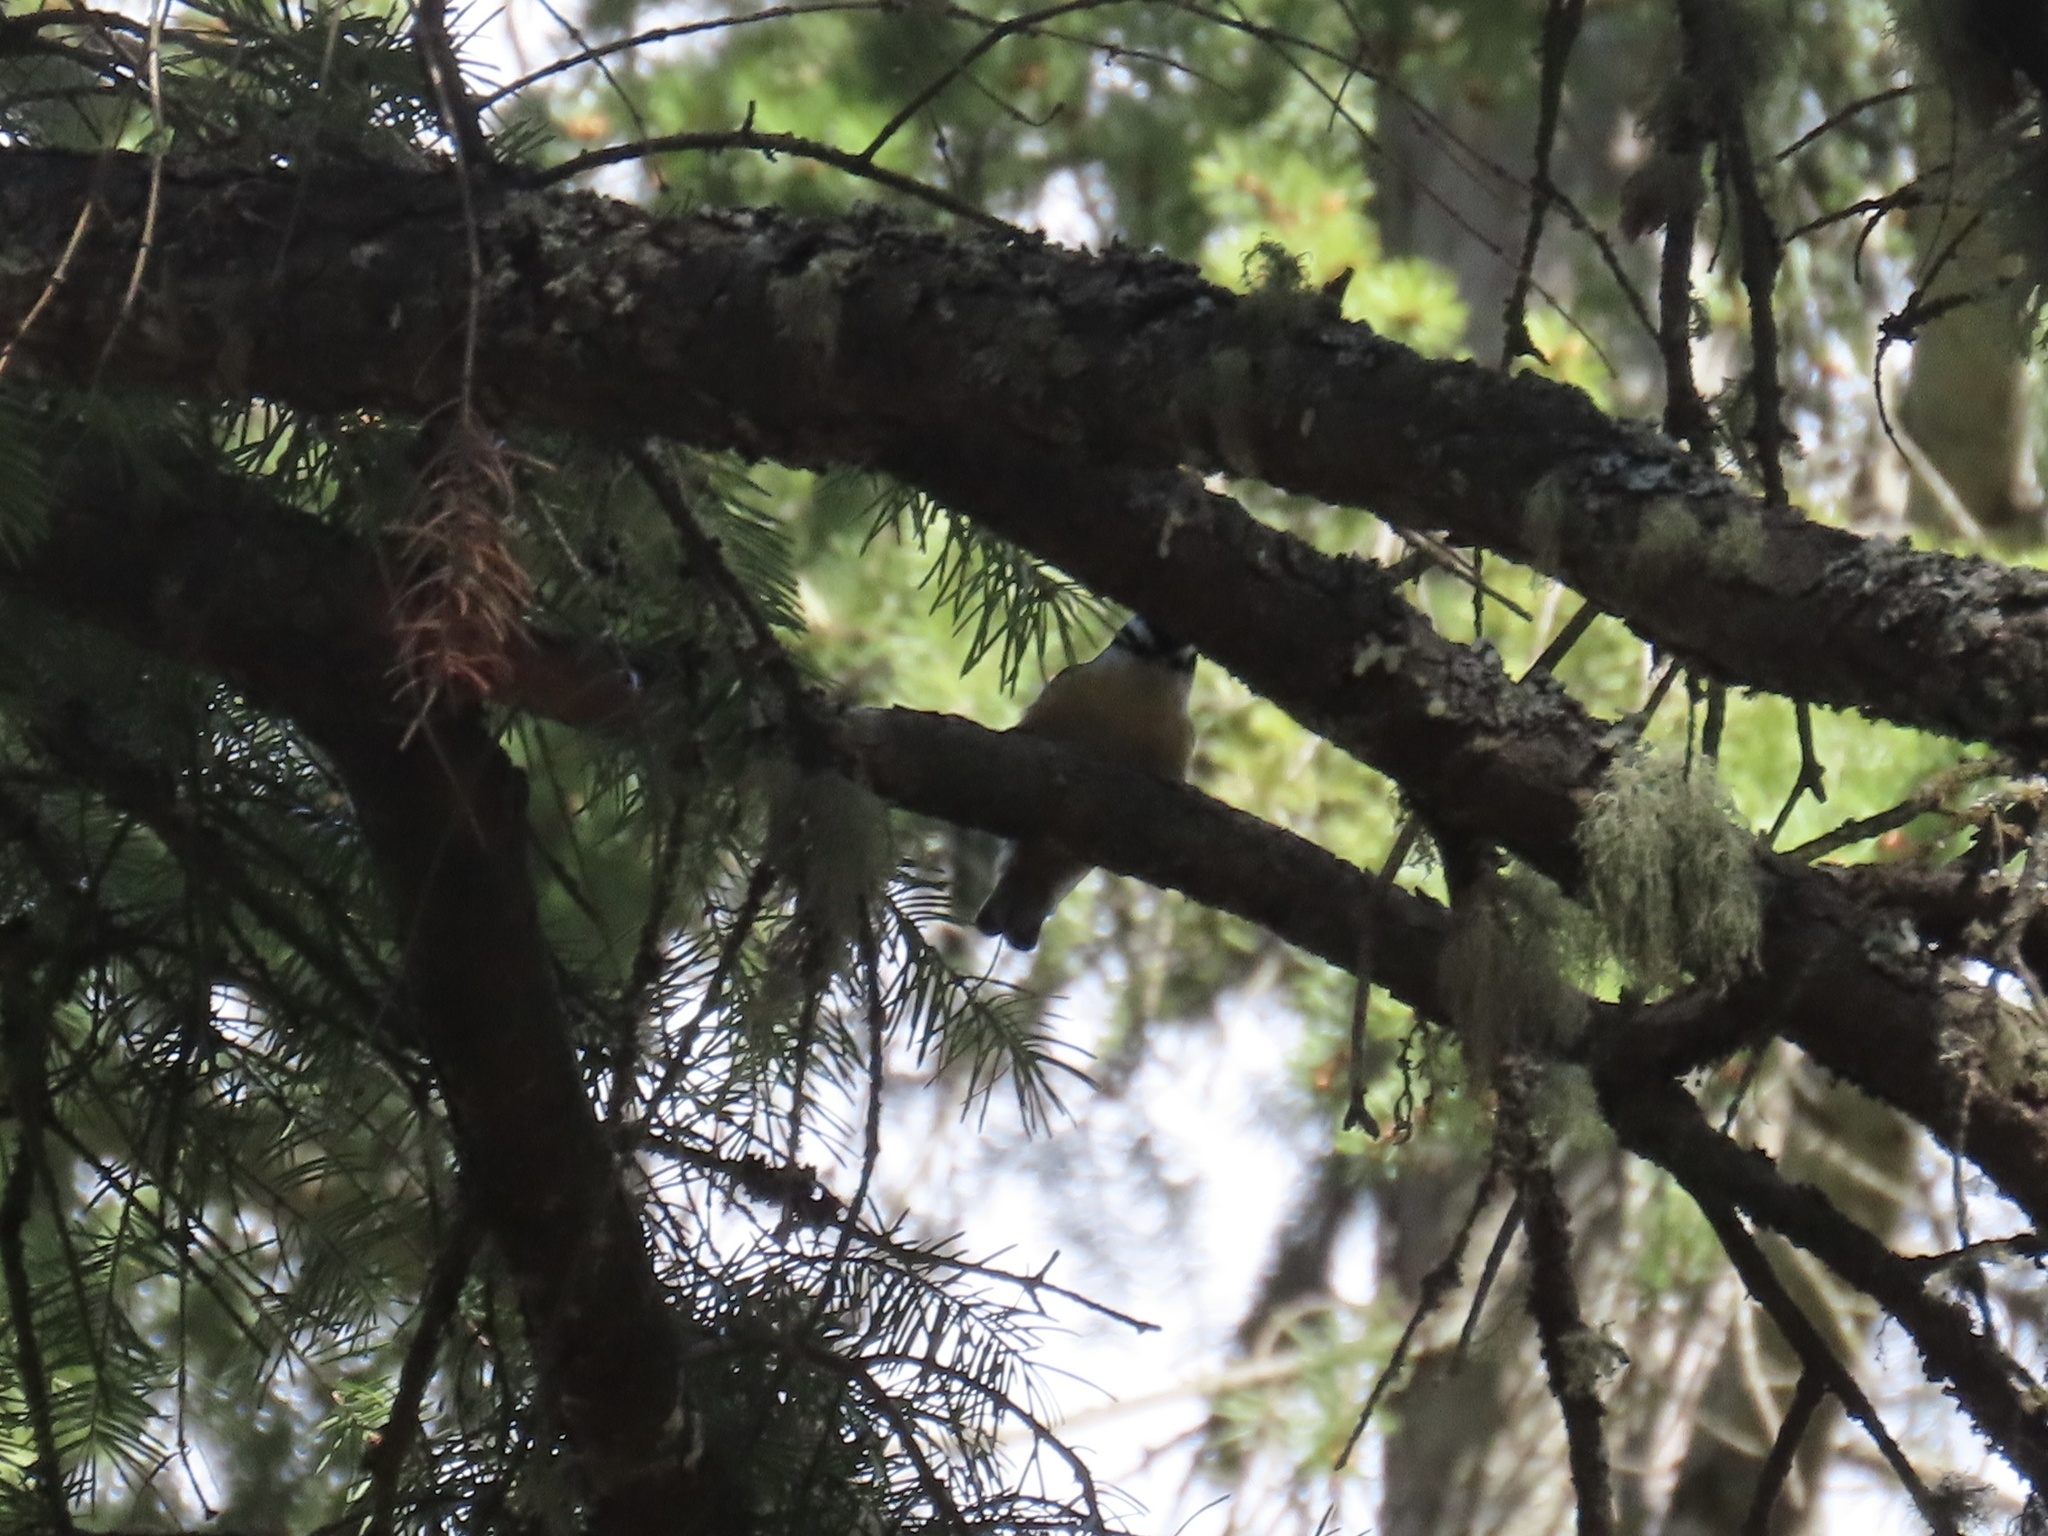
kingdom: Animalia
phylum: Chordata
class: Aves
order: Passeriformes
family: Sittidae
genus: Sitta
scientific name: Sitta canadensis
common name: Red-breasted nuthatch
